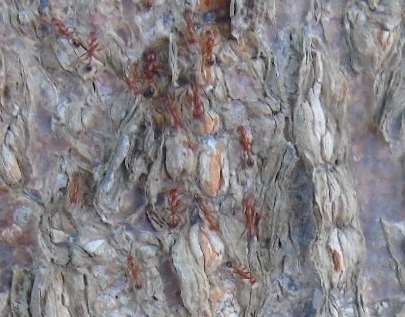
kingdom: Animalia
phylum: Arthropoda
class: Insecta
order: Hymenoptera
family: Formicidae
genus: Neivamyrmex
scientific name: Neivamyrmex graciellae
